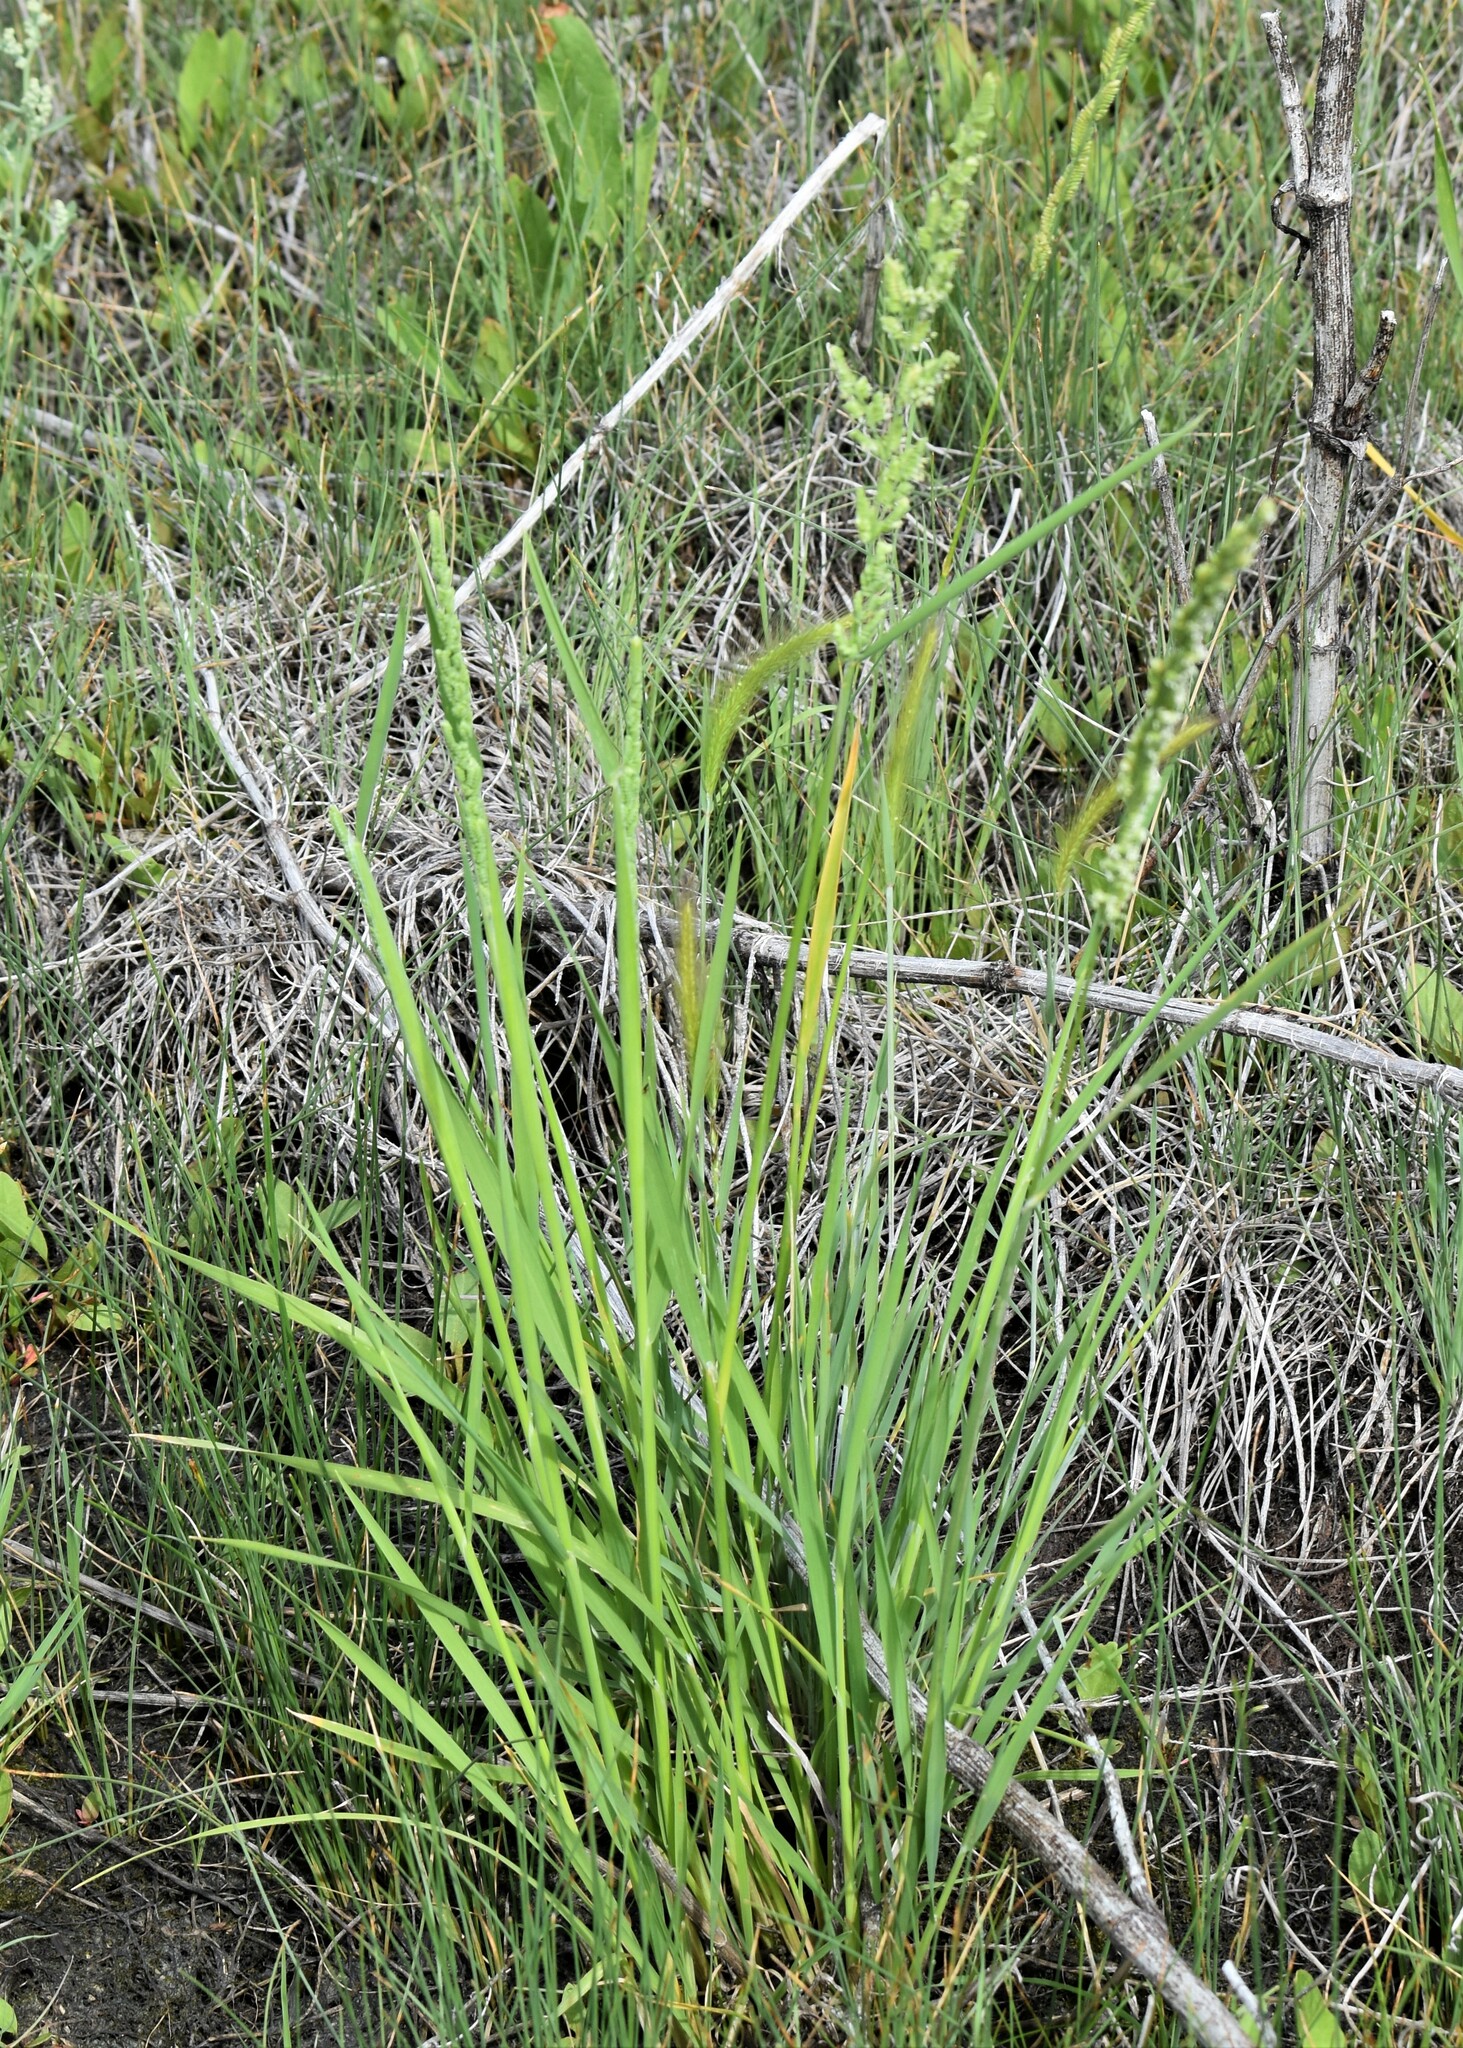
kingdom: Plantae
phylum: Tracheophyta
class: Liliopsida
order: Poales
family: Poaceae
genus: Beckmannia
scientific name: Beckmannia syzigachne
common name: American slough-grass
